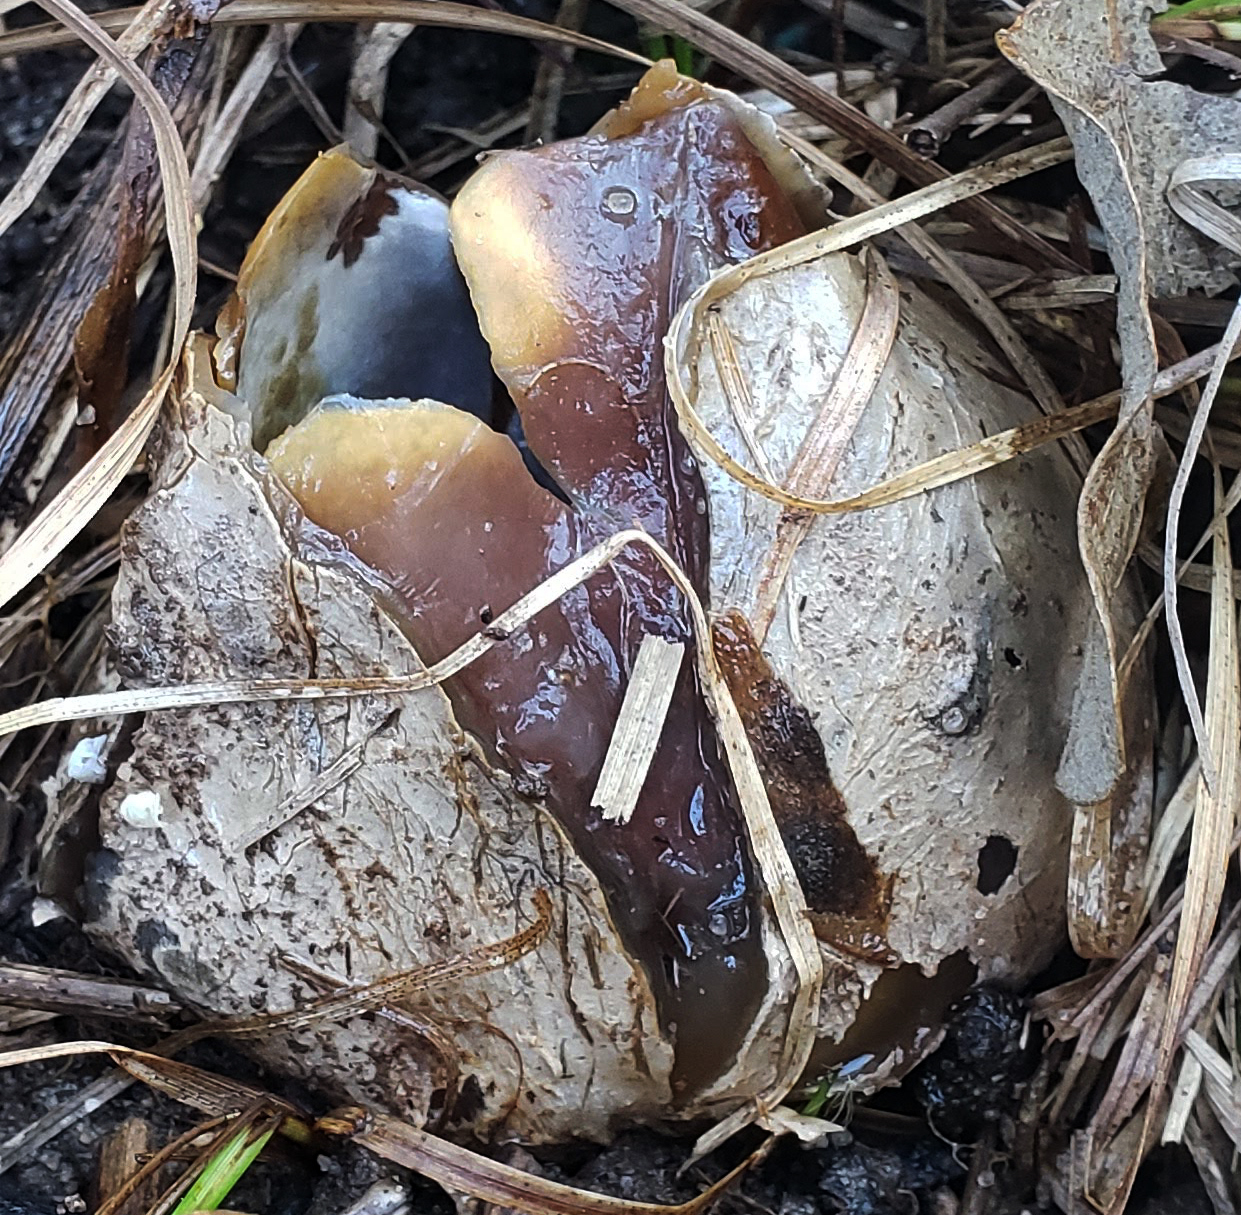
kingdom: Fungi
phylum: Basidiomycota
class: Agaricomycetes
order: Phallales
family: Phallaceae
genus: Phallus
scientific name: Phallus impudicus
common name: Common stinkhorn
